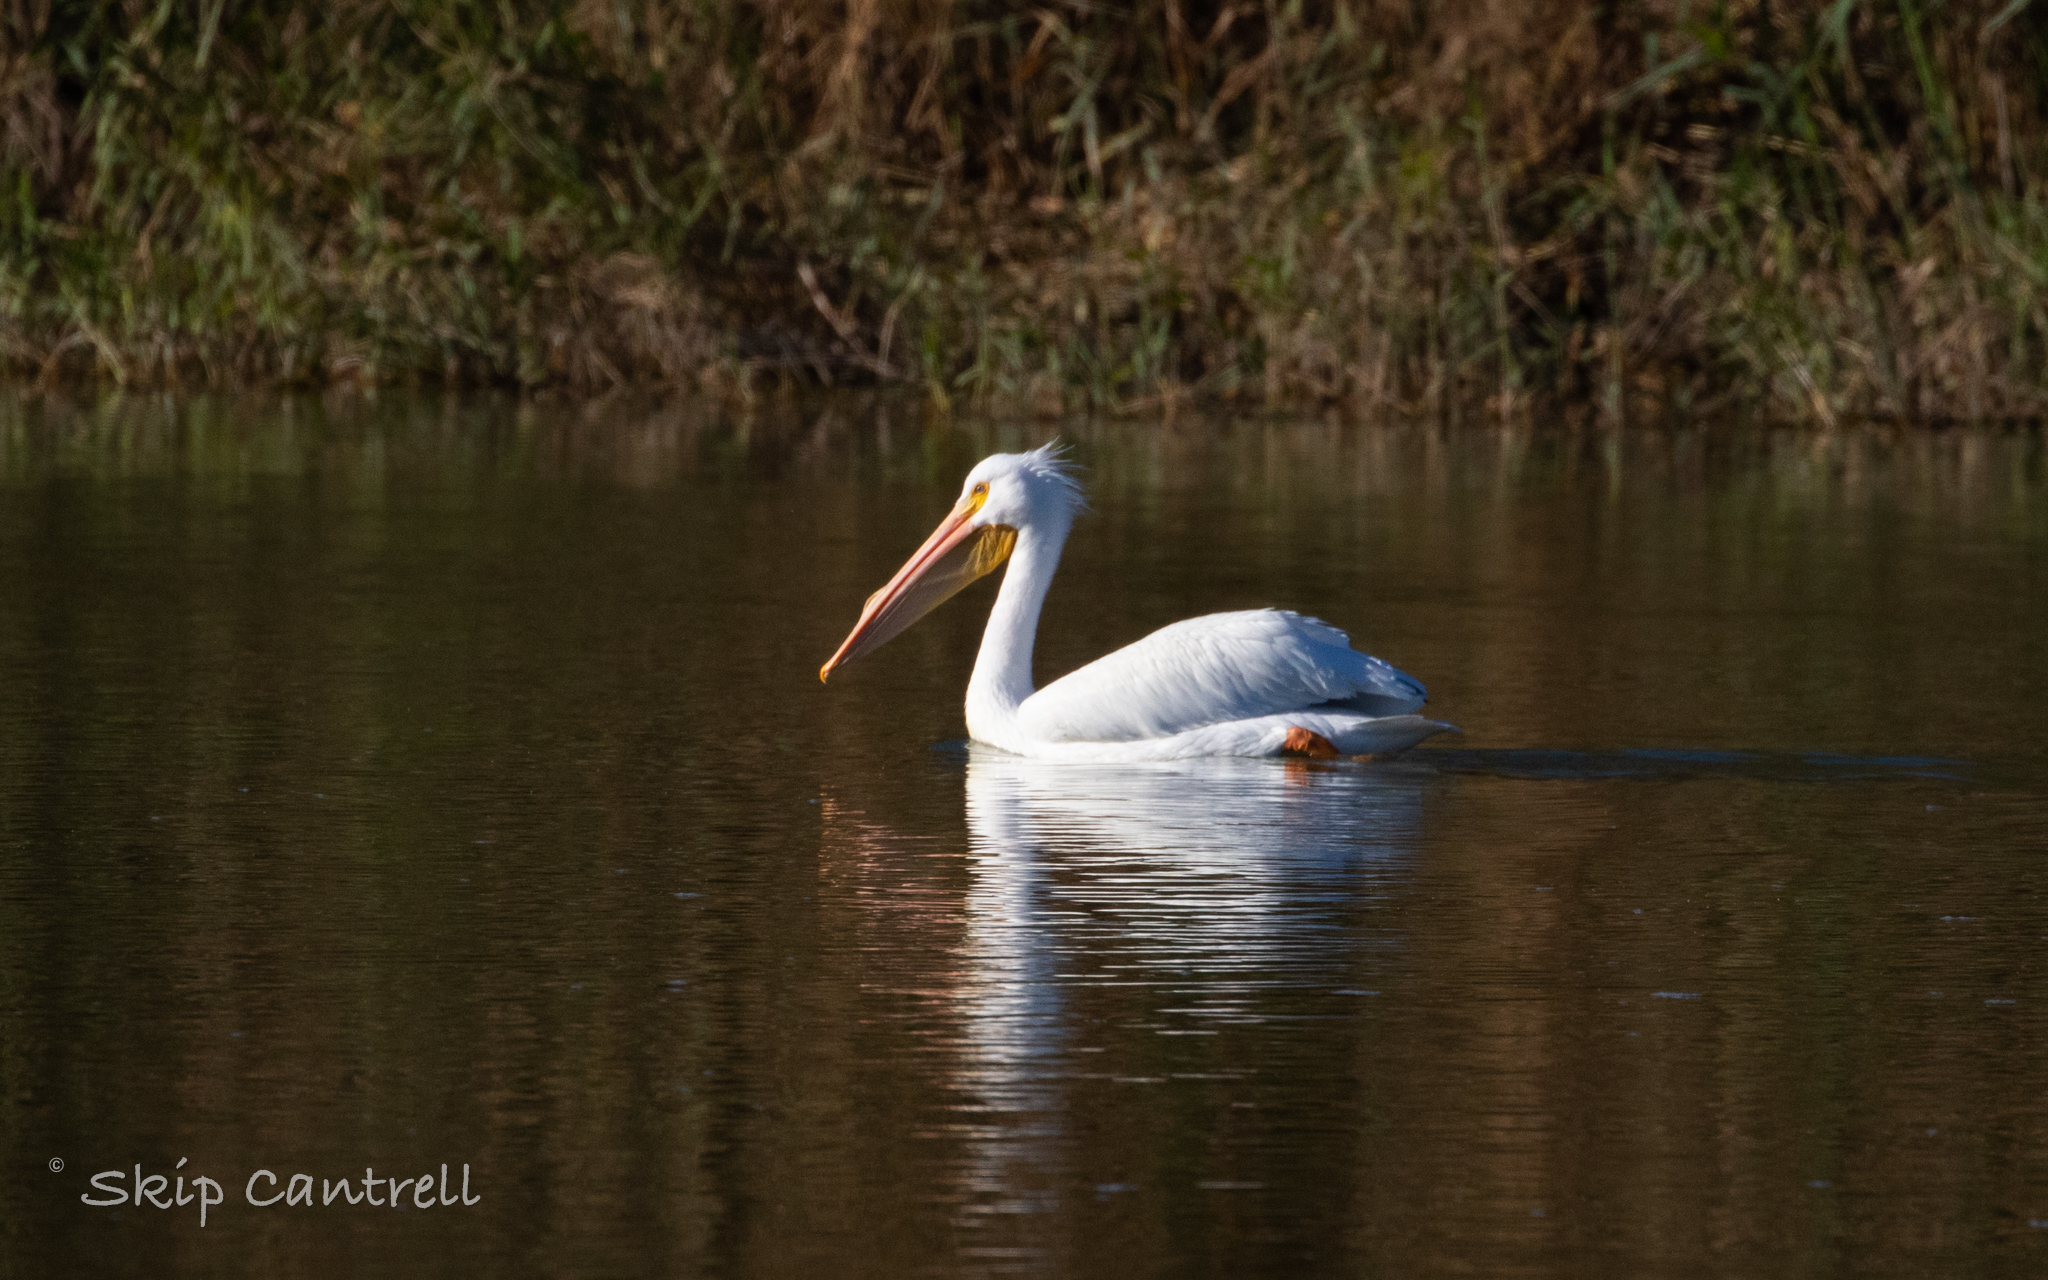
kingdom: Animalia
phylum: Chordata
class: Aves
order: Pelecaniformes
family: Pelecanidae
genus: Pelecanus
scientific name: Pelecanus erythrorhynchos
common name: American white pelican
